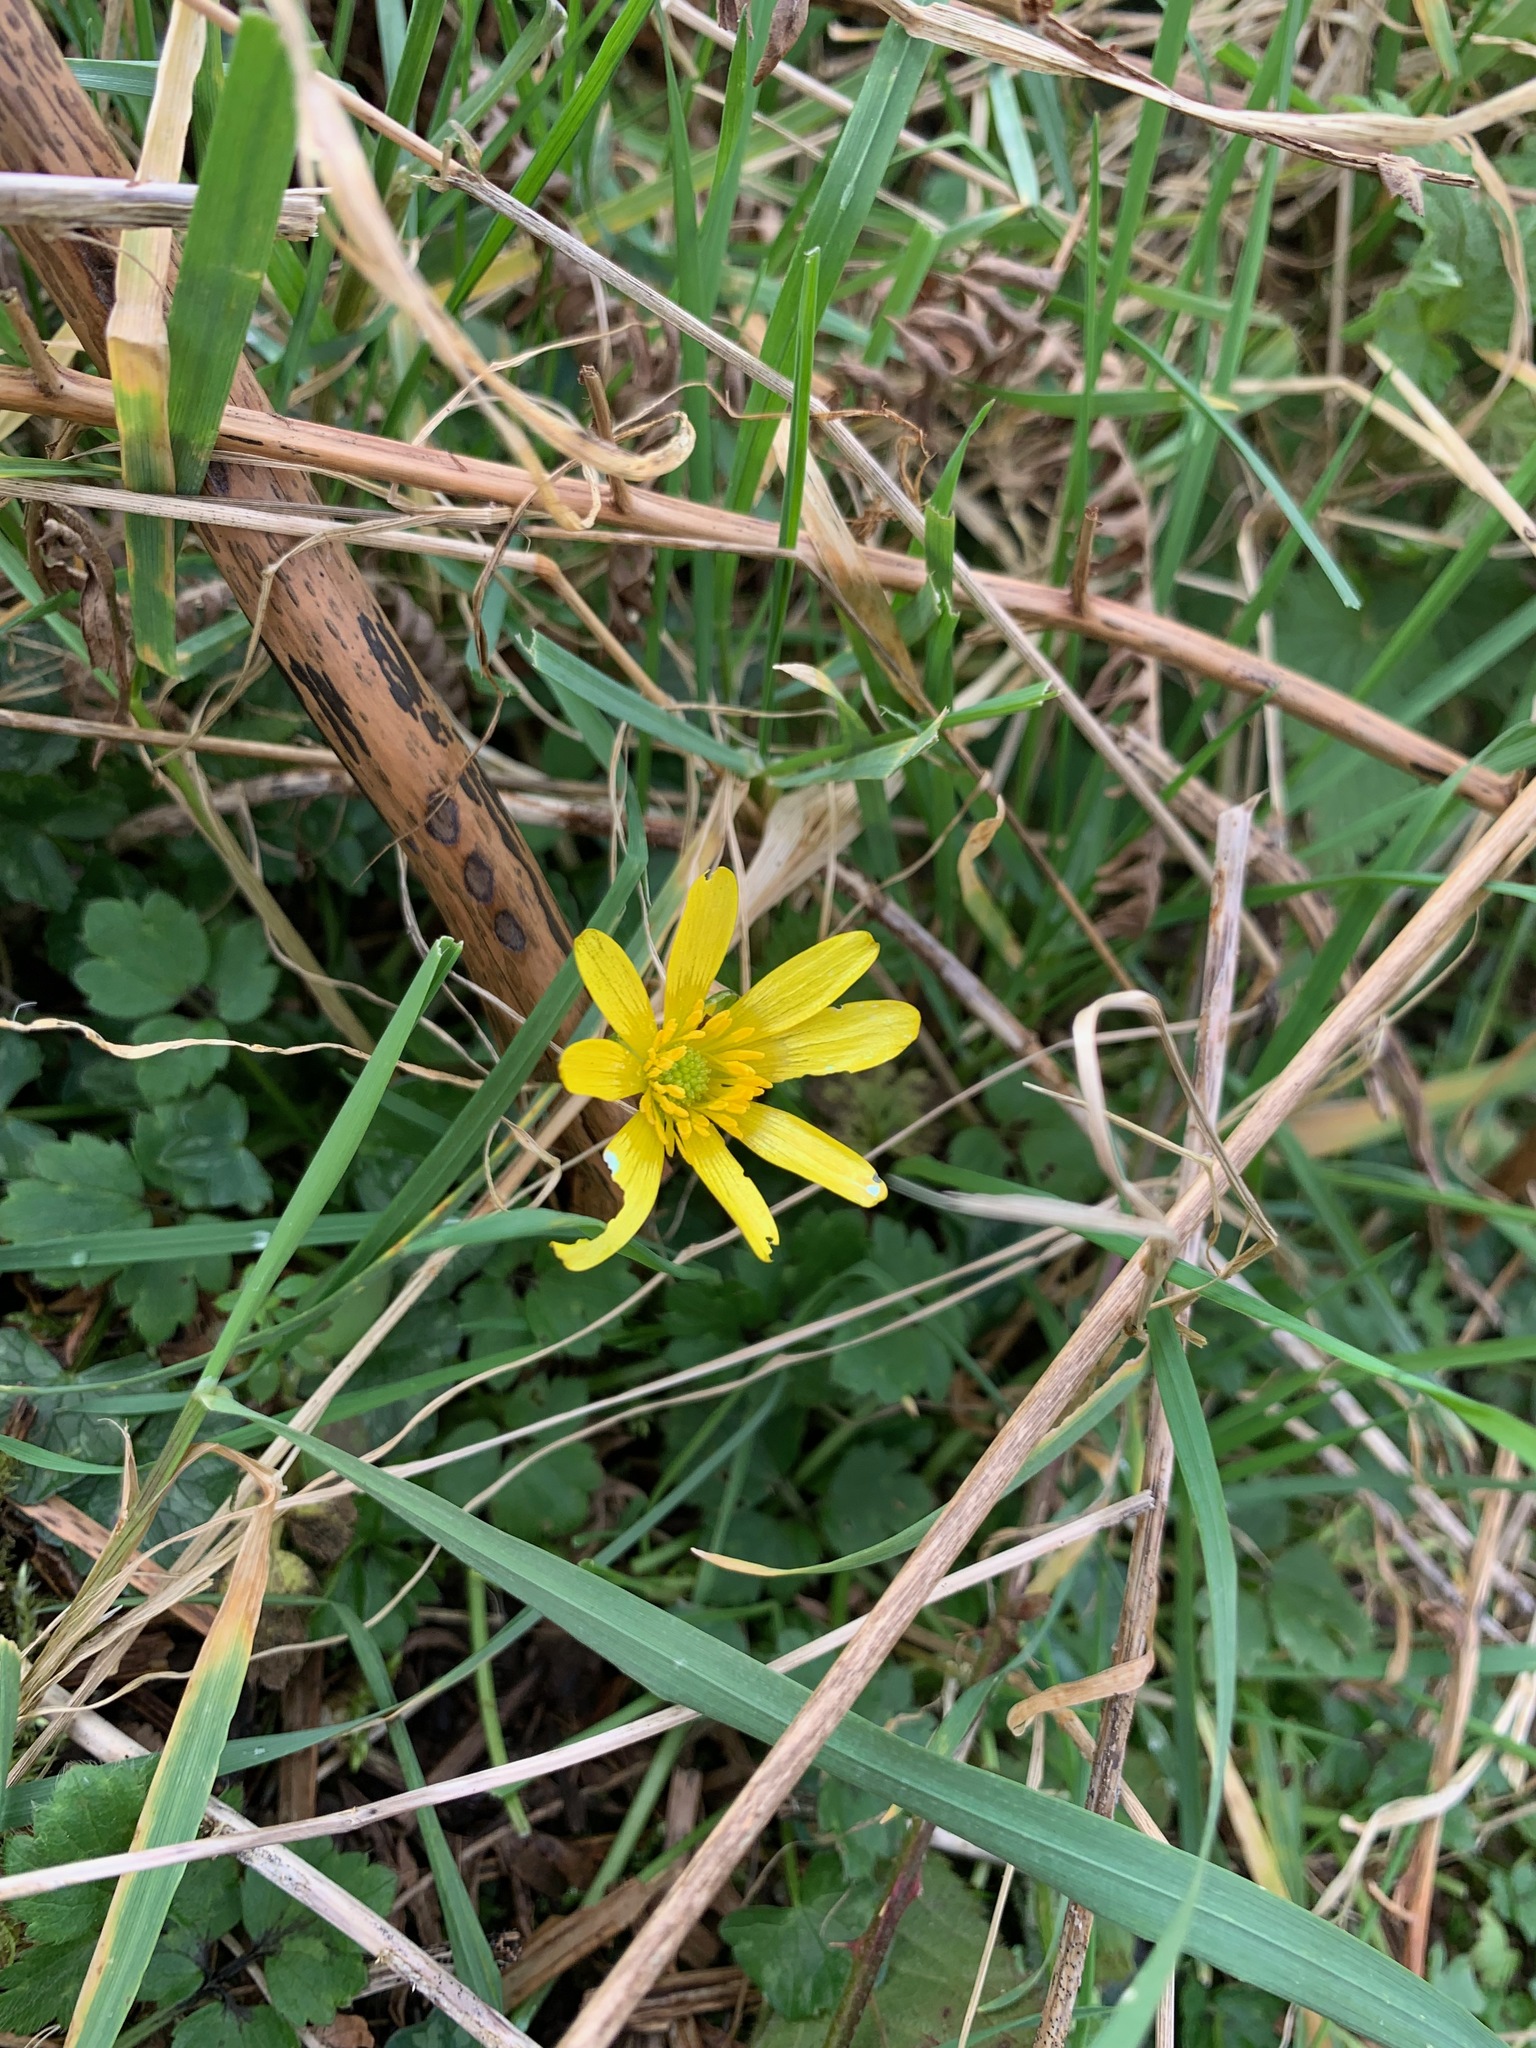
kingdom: Plantae
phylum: Tracheophyta
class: Magnoliopsida
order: Ranunculales
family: Ranunculaceae
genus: Ficaria
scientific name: Ficaria verna
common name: Lesser celandine
